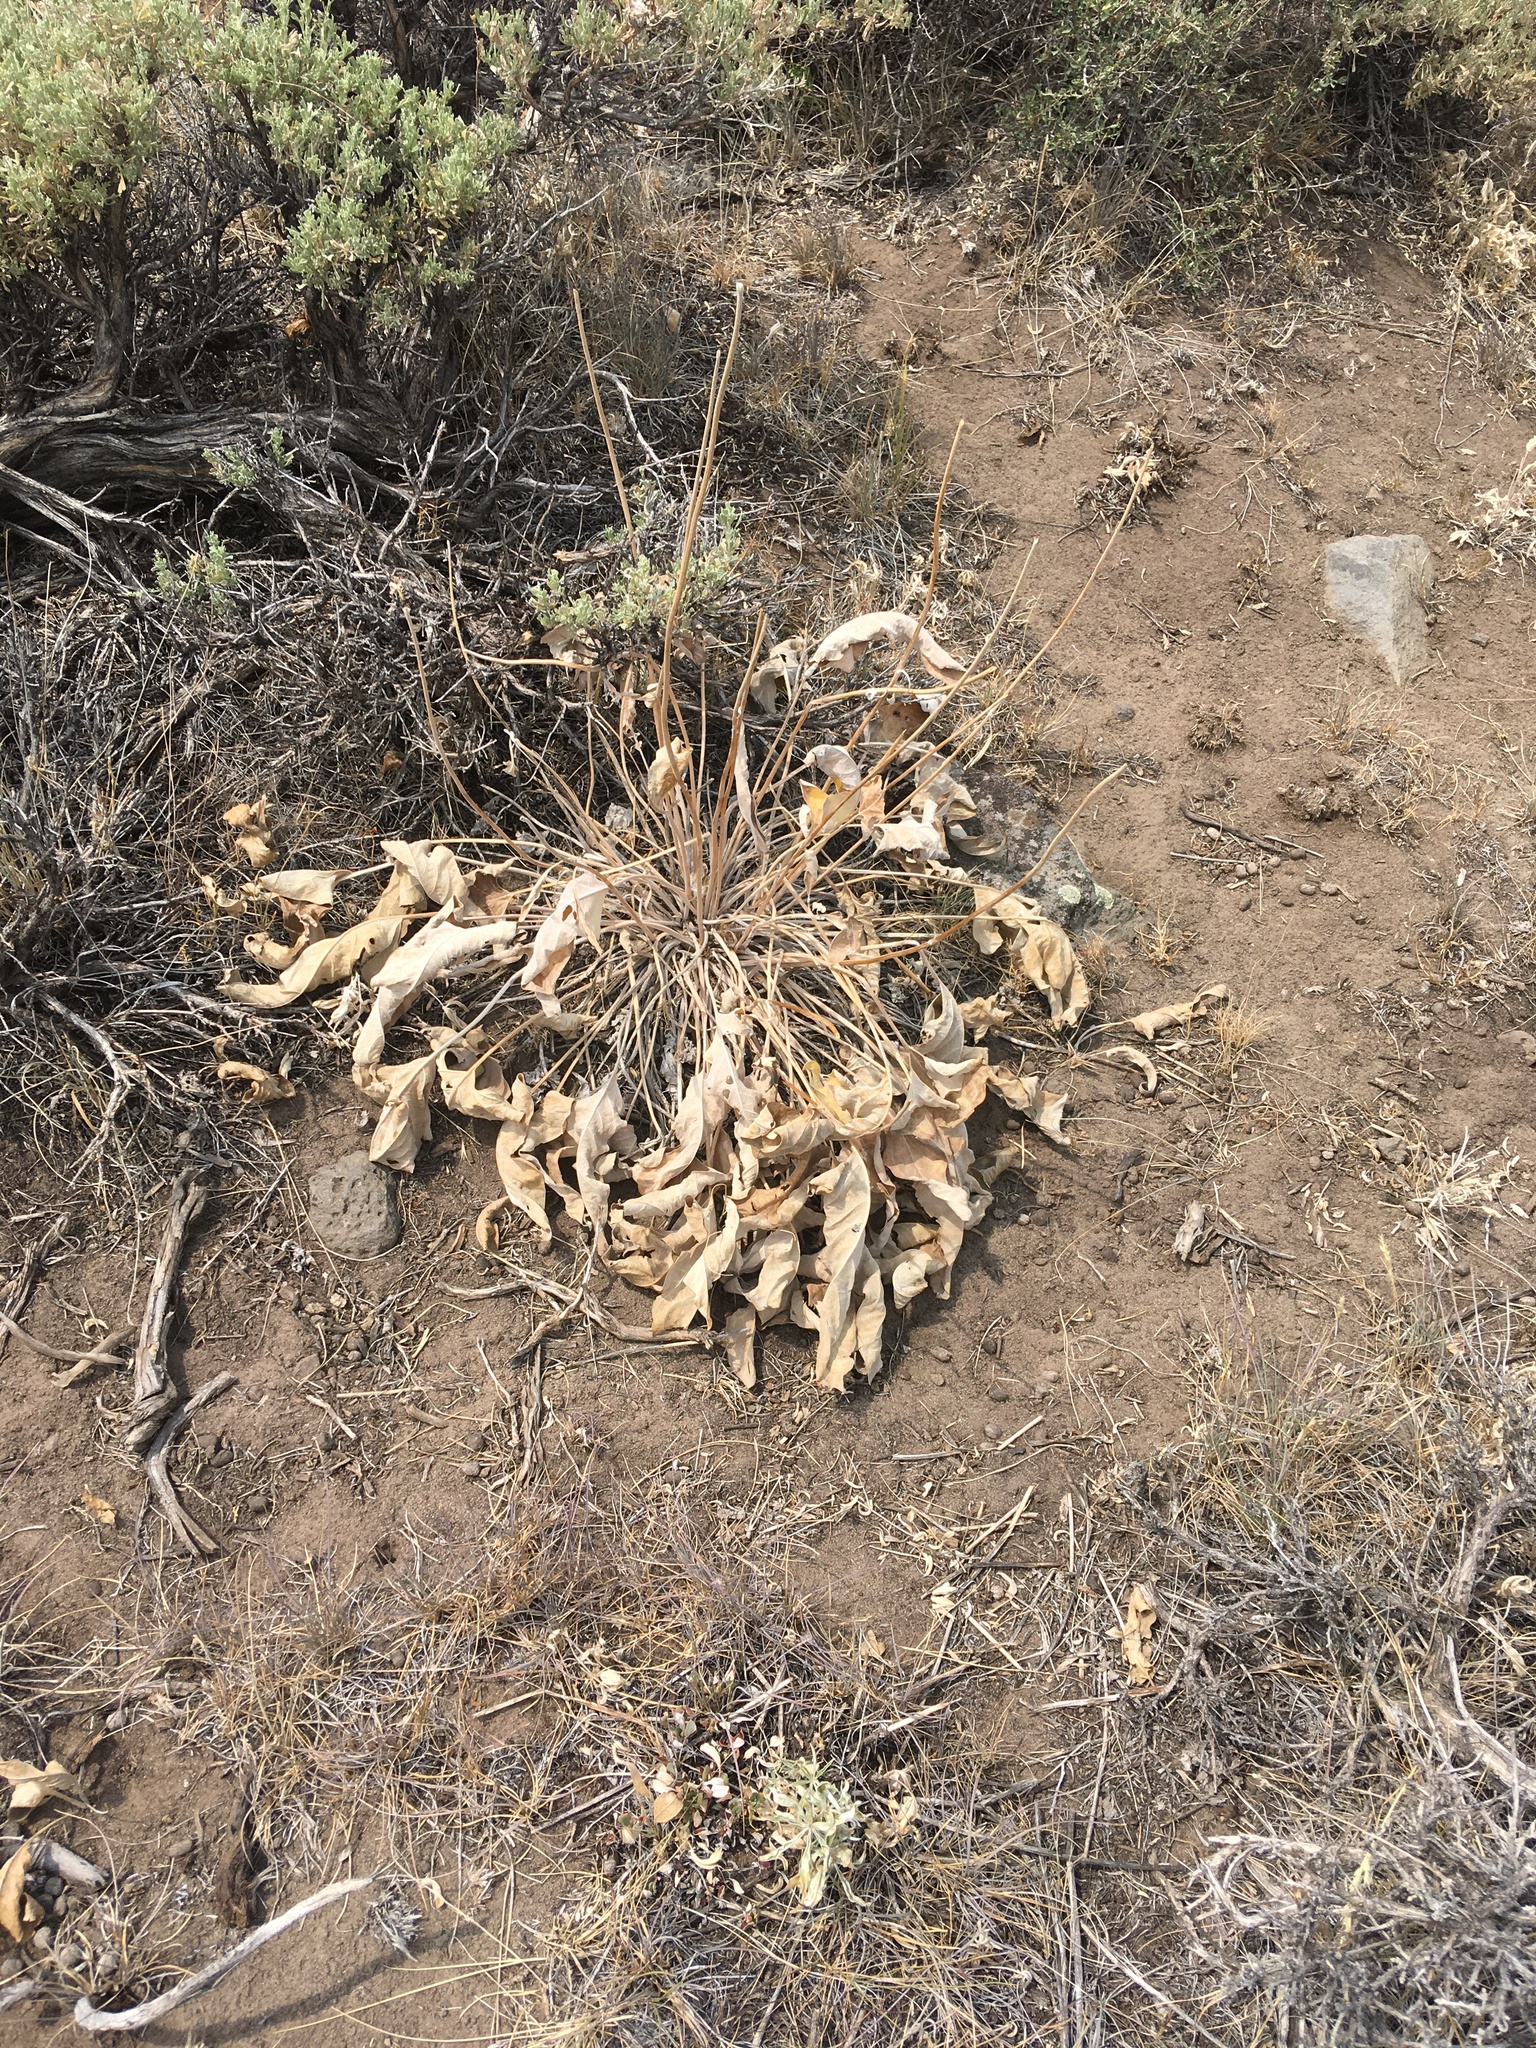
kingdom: Plantae
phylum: Tracheophyta
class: Magnoliopsida
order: Asterales
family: Asteraceae
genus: Wyethia
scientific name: Wyethia sagittata
